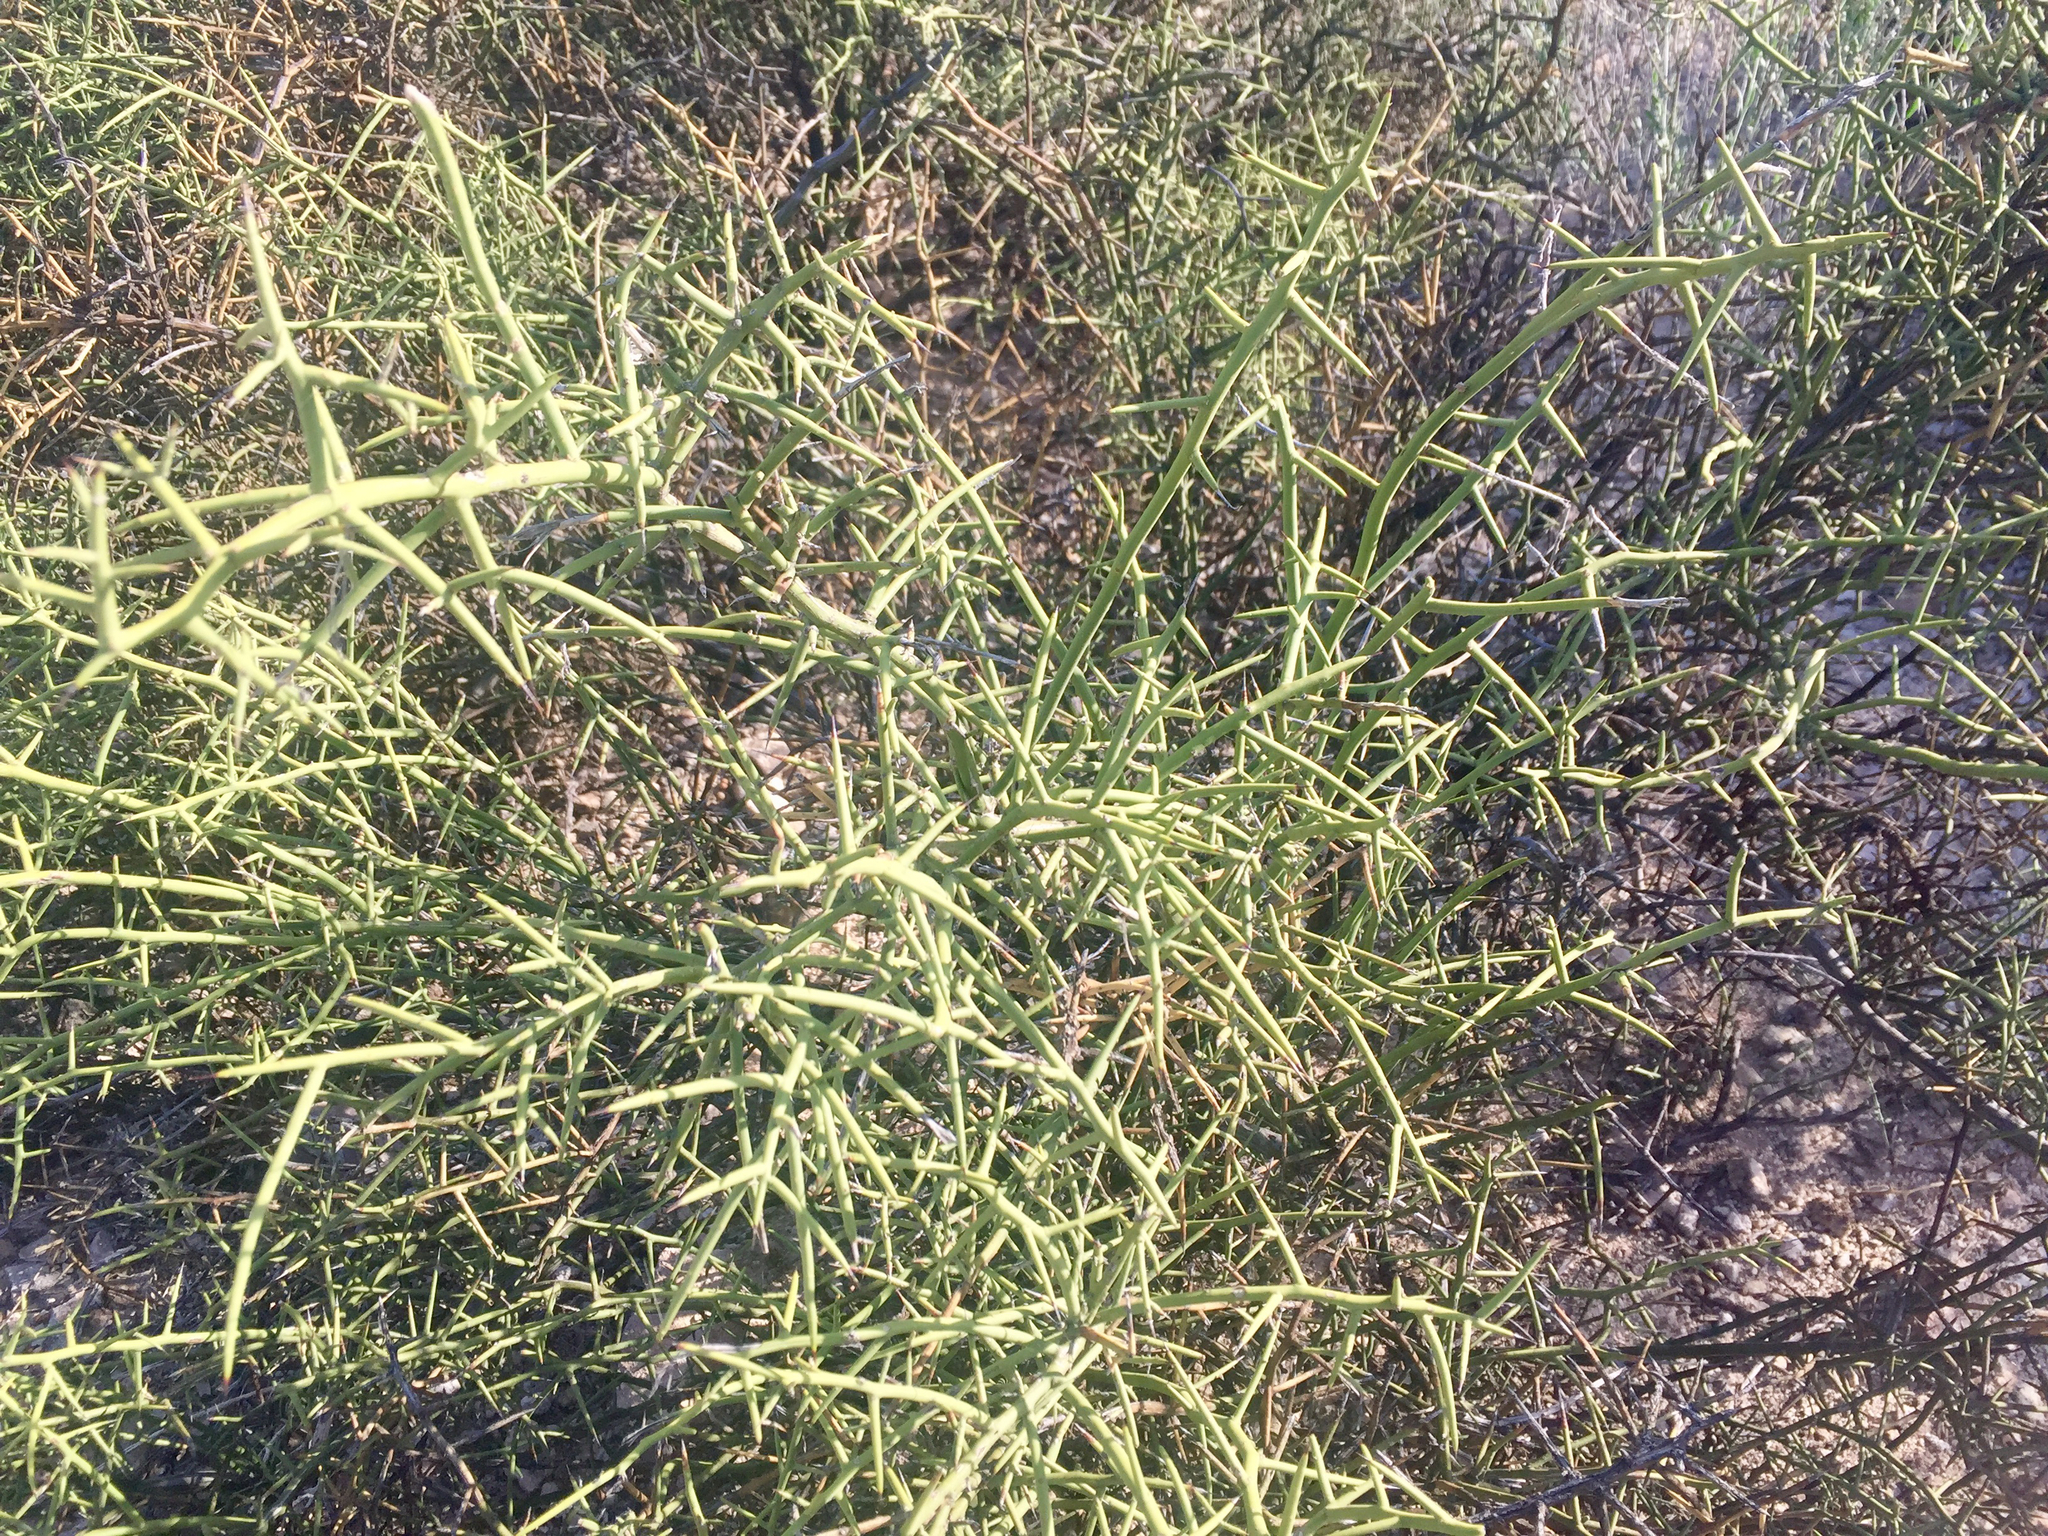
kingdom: Plantae
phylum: Tracheophyta
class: Magnoliopsida
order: Brassicales
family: Koeberliniaceae
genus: Koeberlinia
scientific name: Koeberlinia spinosa
